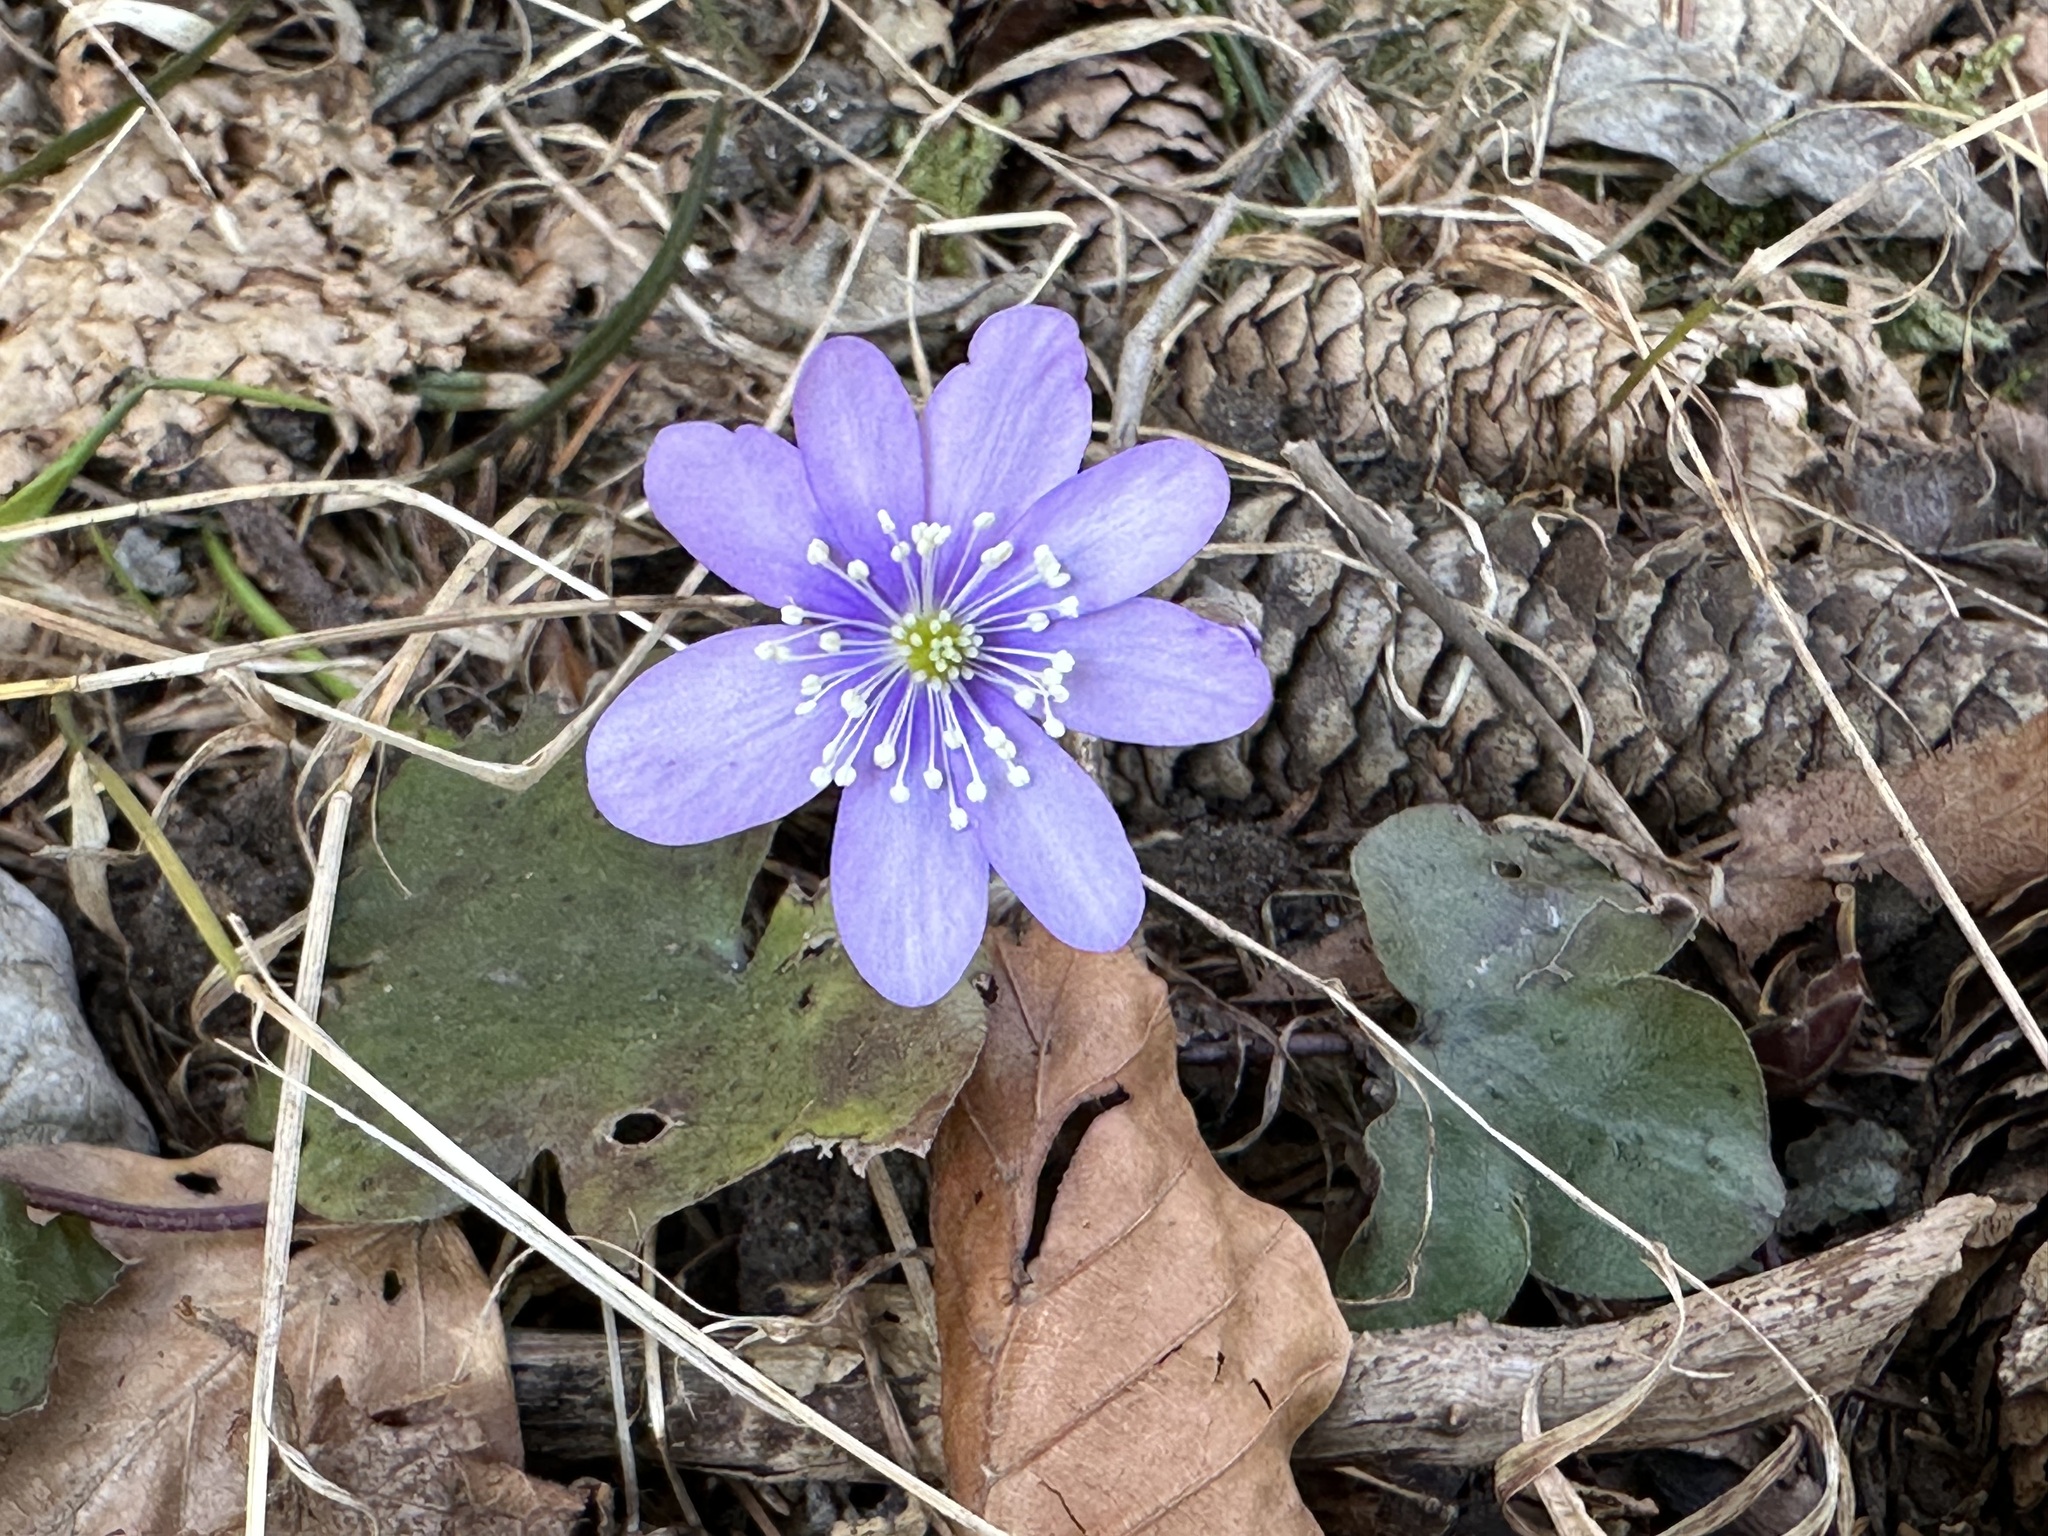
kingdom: Plantae
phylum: Tracheophyta
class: Magnoliopsida
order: Ranunculales
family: Ranunculaceae
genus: Hepatica
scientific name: Hepatica nobilis
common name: Liverleaf
